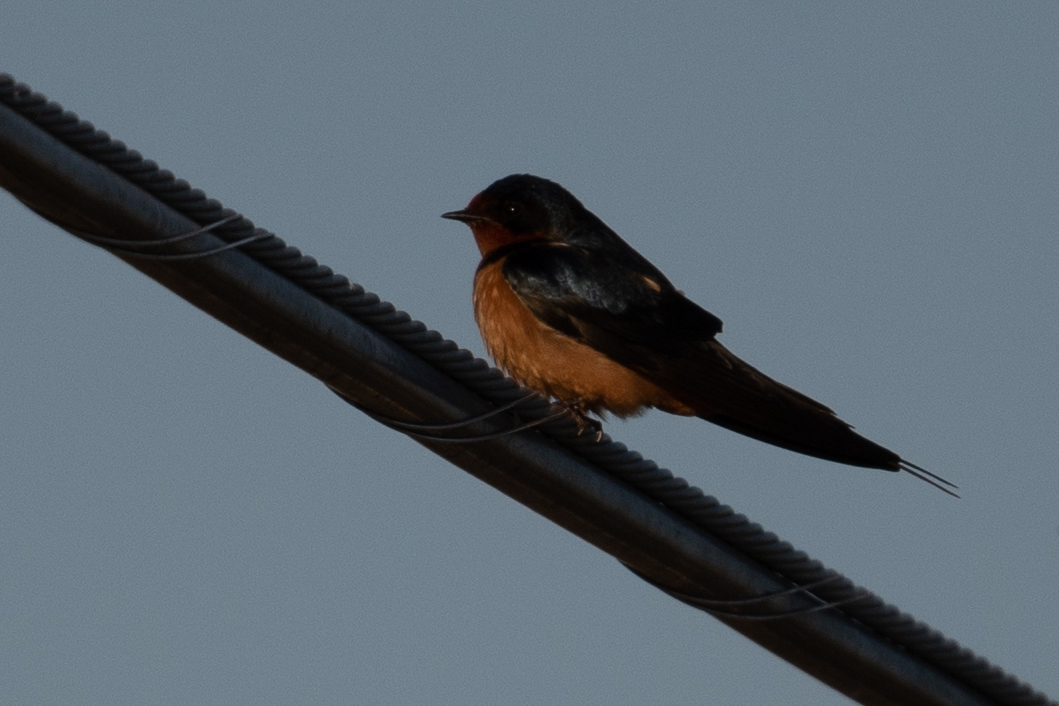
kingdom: Animalia
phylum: Chordata
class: Aves
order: Passeriformes
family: Hirundinidae
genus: Hirundo
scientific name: Hirundo rustica
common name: Barn swallow
